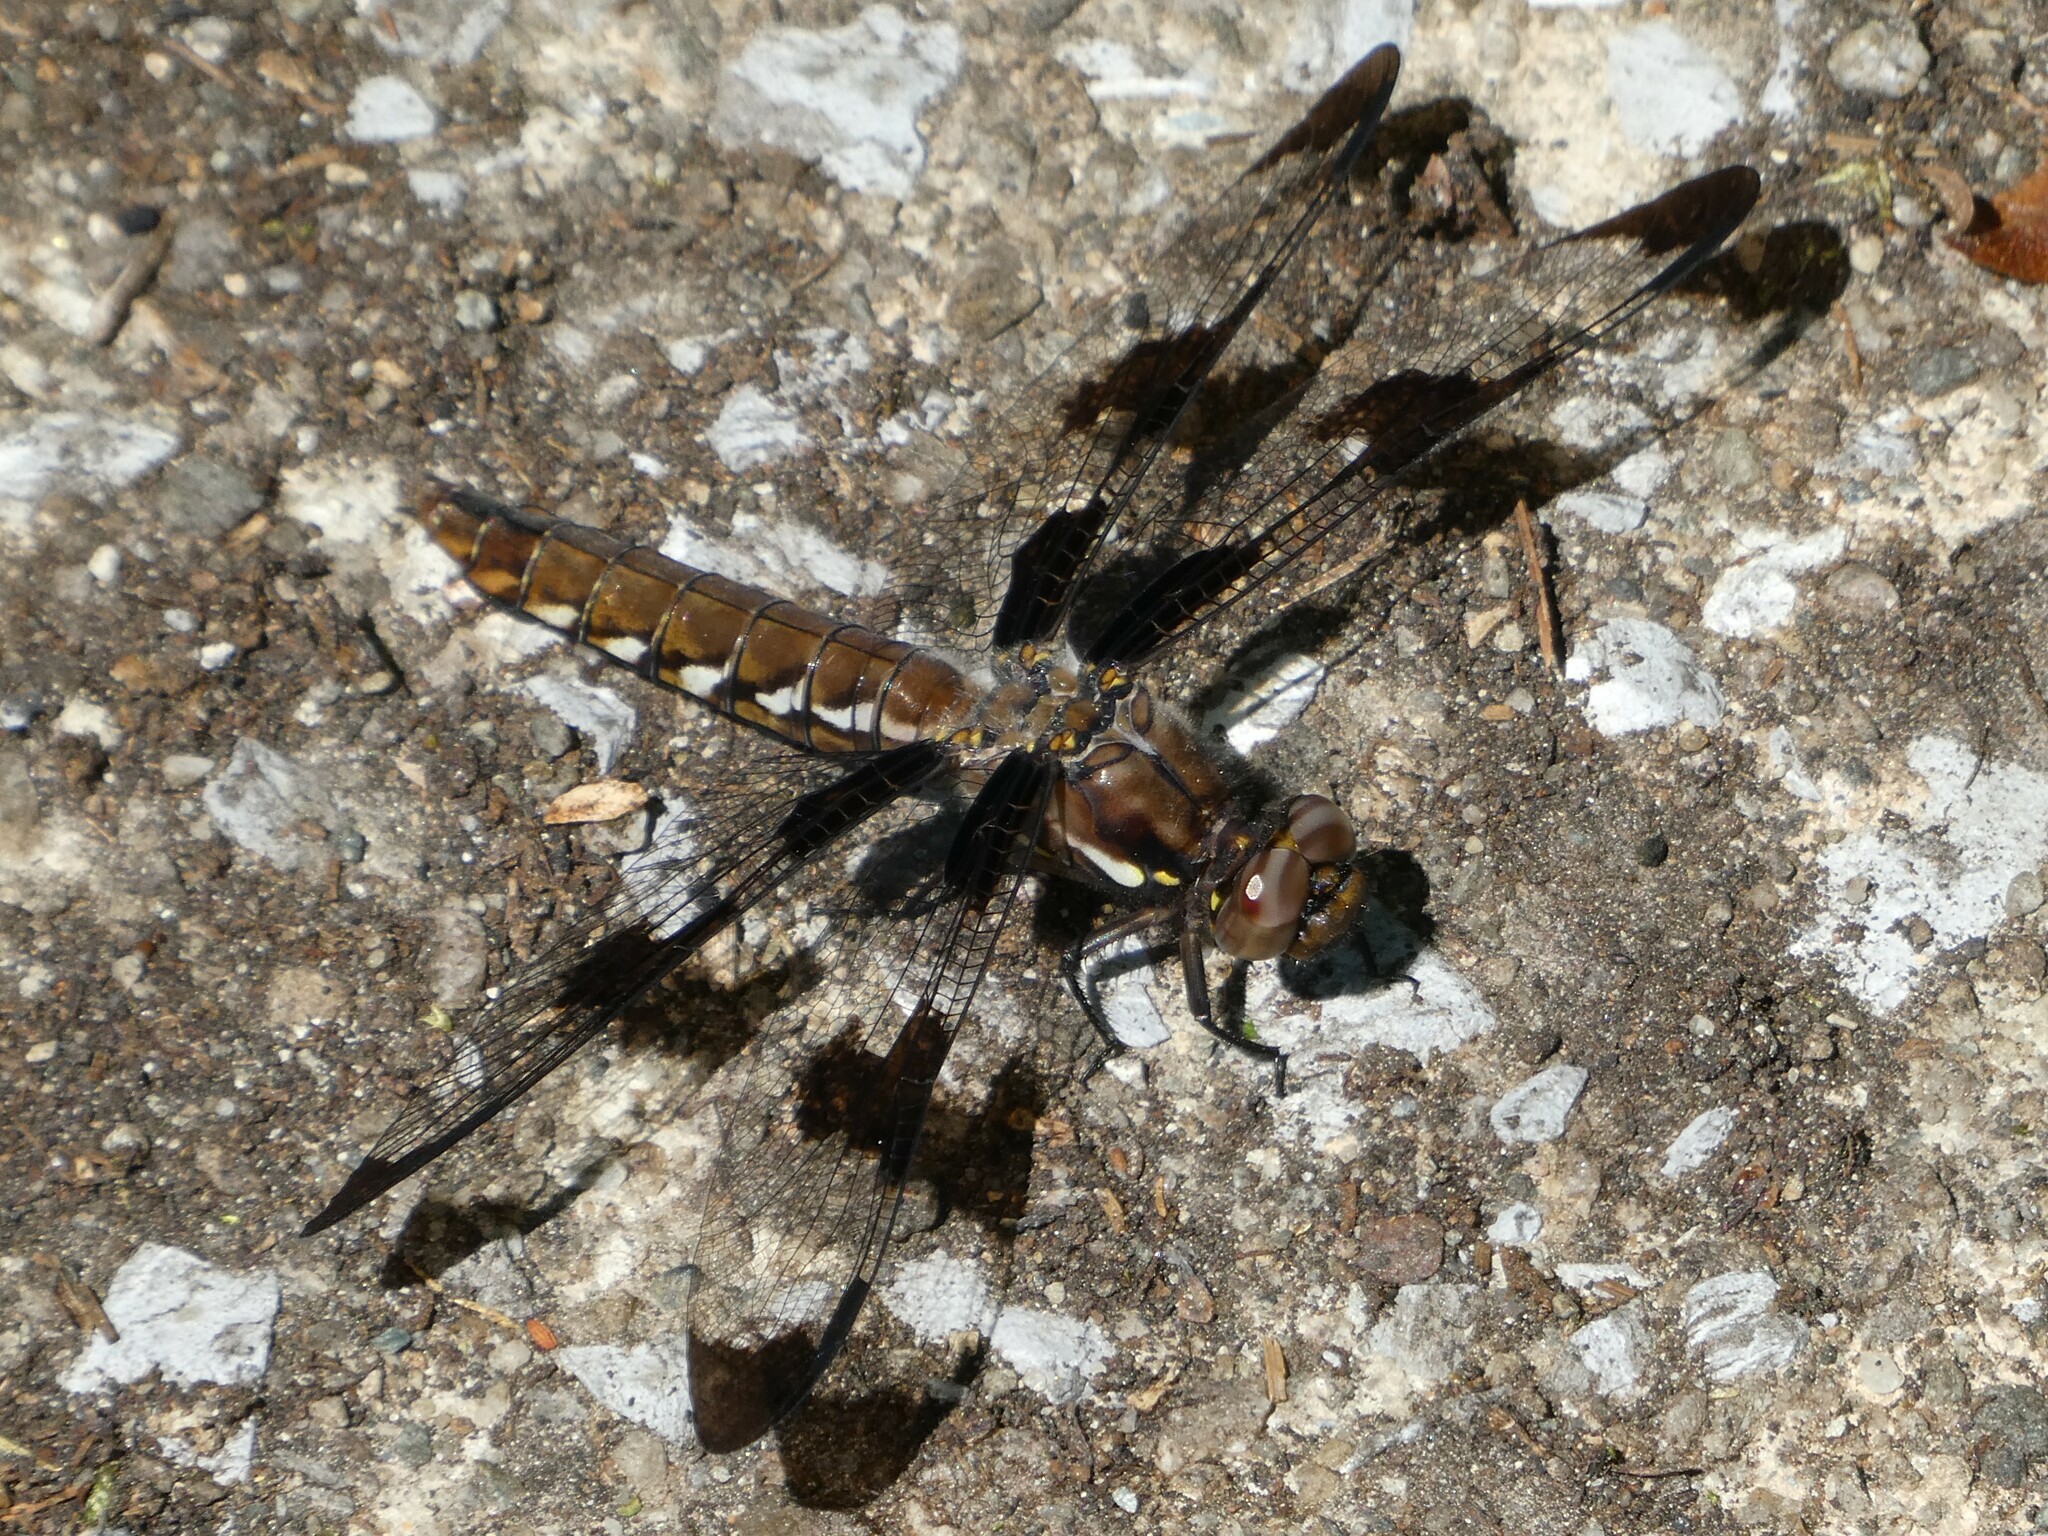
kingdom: Animalia
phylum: Arthropoda
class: Insecta
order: Odonata
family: Libellulidae
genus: Plathemis
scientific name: Plathemis lydia
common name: Common whitetail
